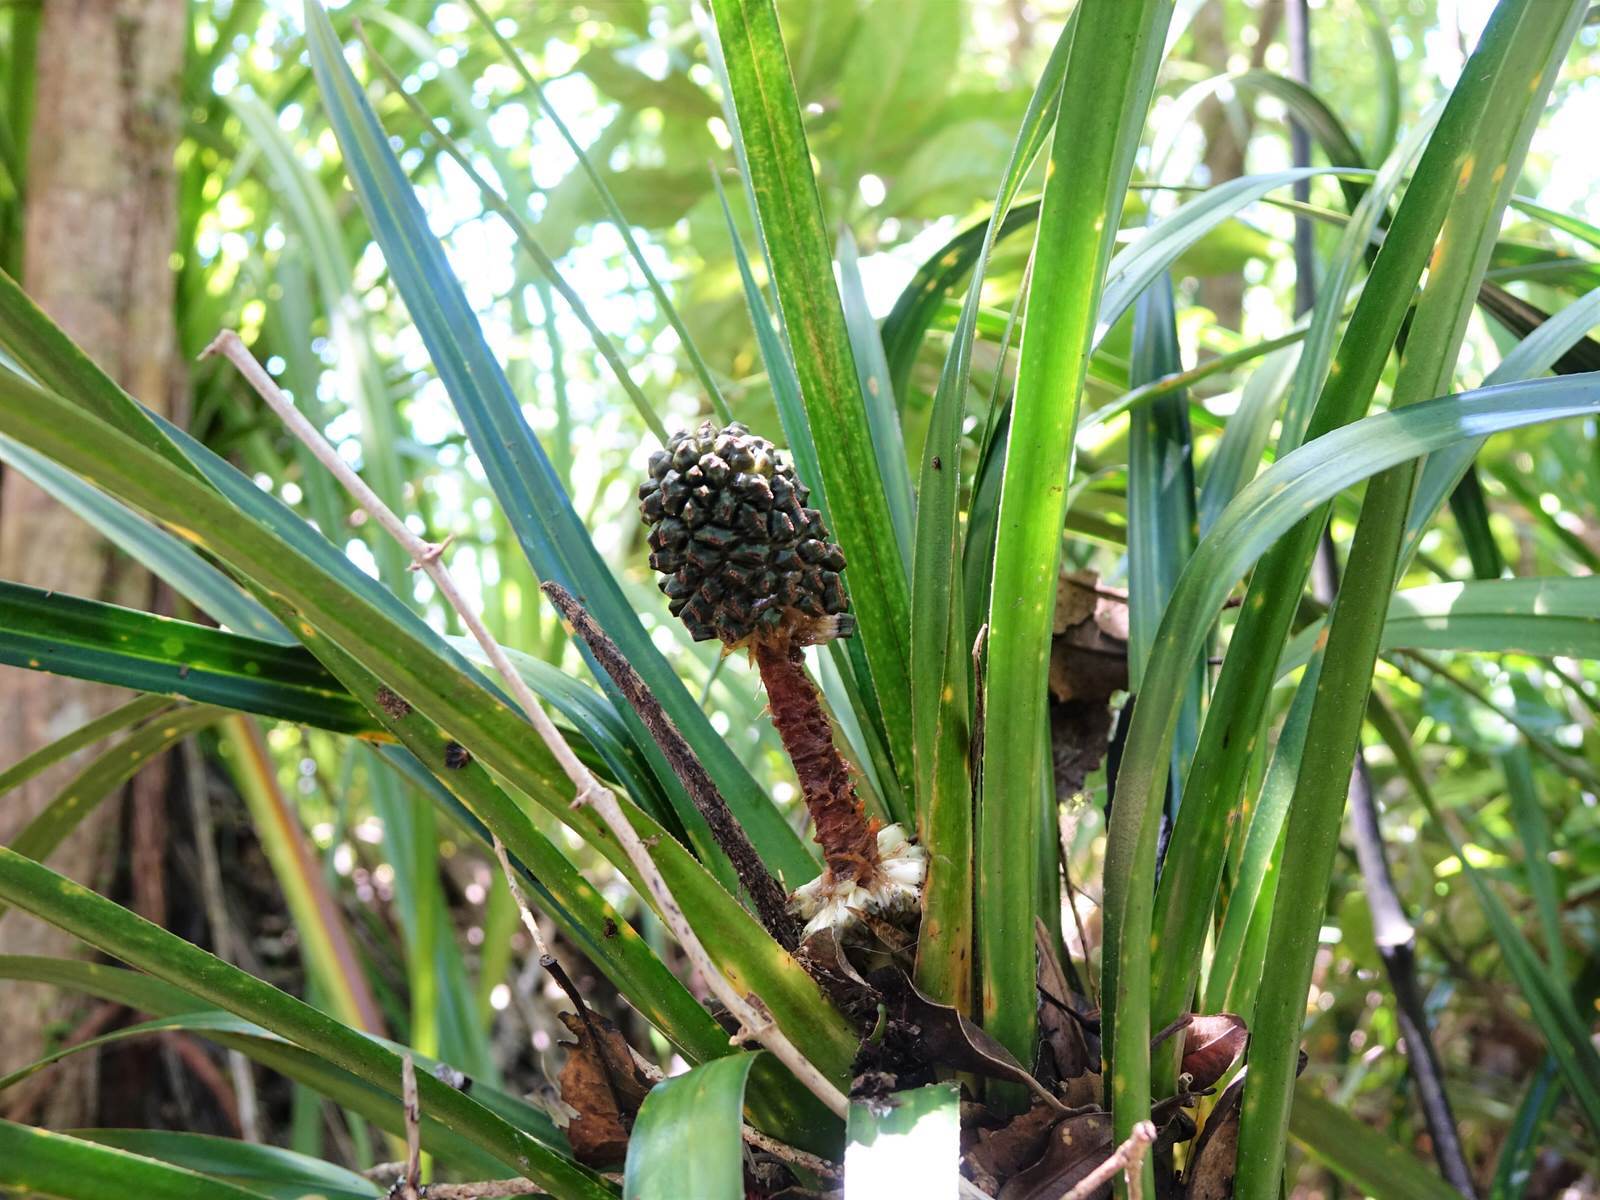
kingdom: Plantae
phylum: Tracheophyta
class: Liliopsida
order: Pandanales
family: Pandanaceae
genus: Freycinetia
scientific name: Freycinetia banksii
